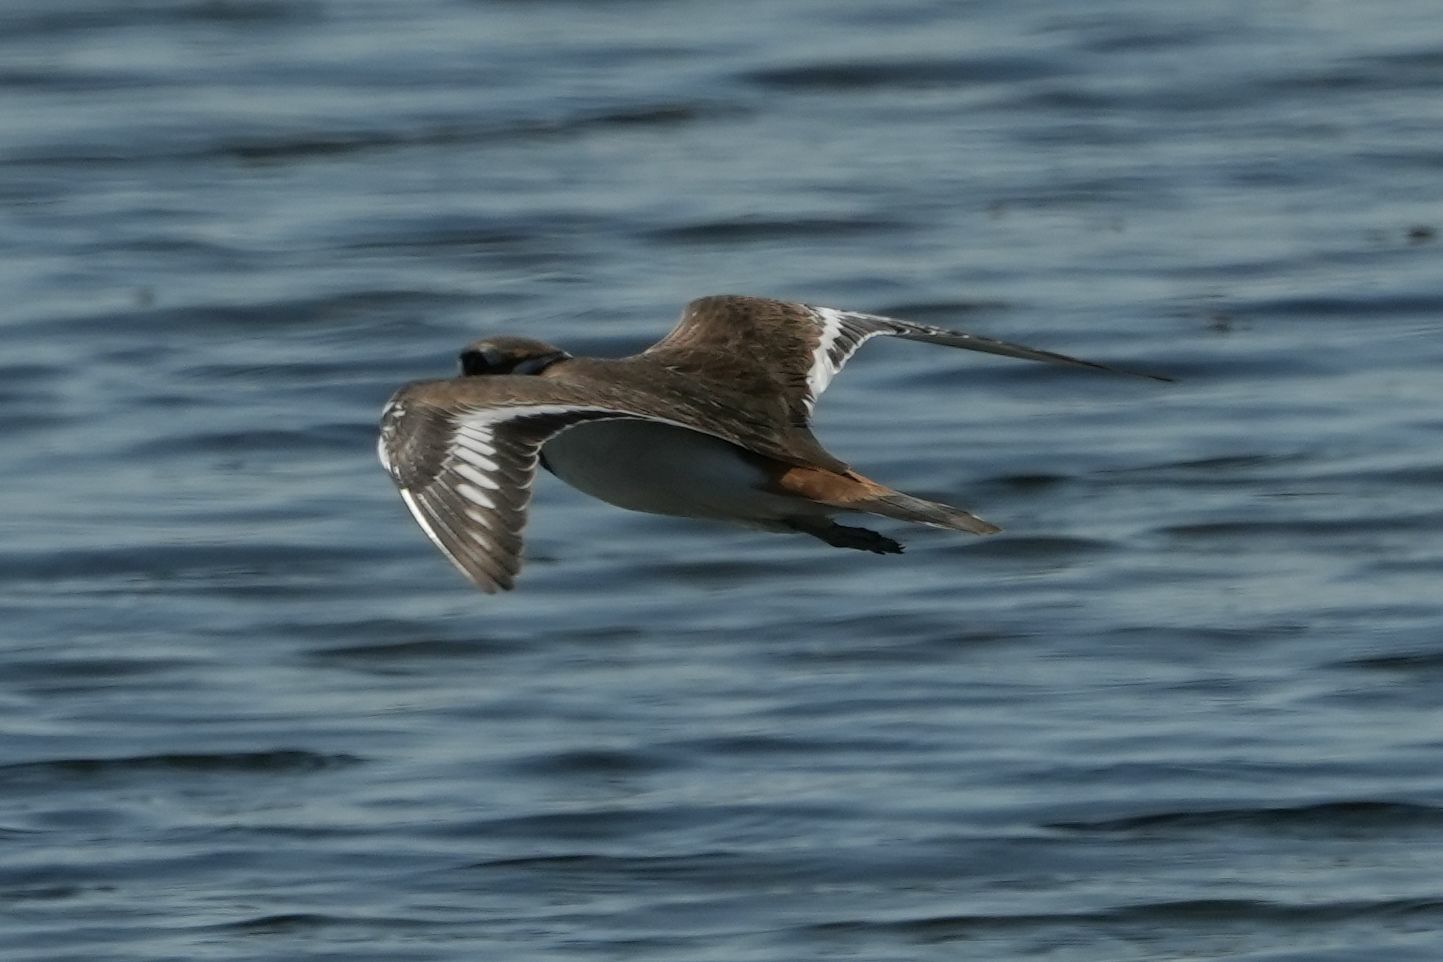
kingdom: Animalia
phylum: Chordata
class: Aves
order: Charadriiformes
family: Charadriidae
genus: Charadrius
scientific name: Charadrius vociferus
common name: Killdeer
